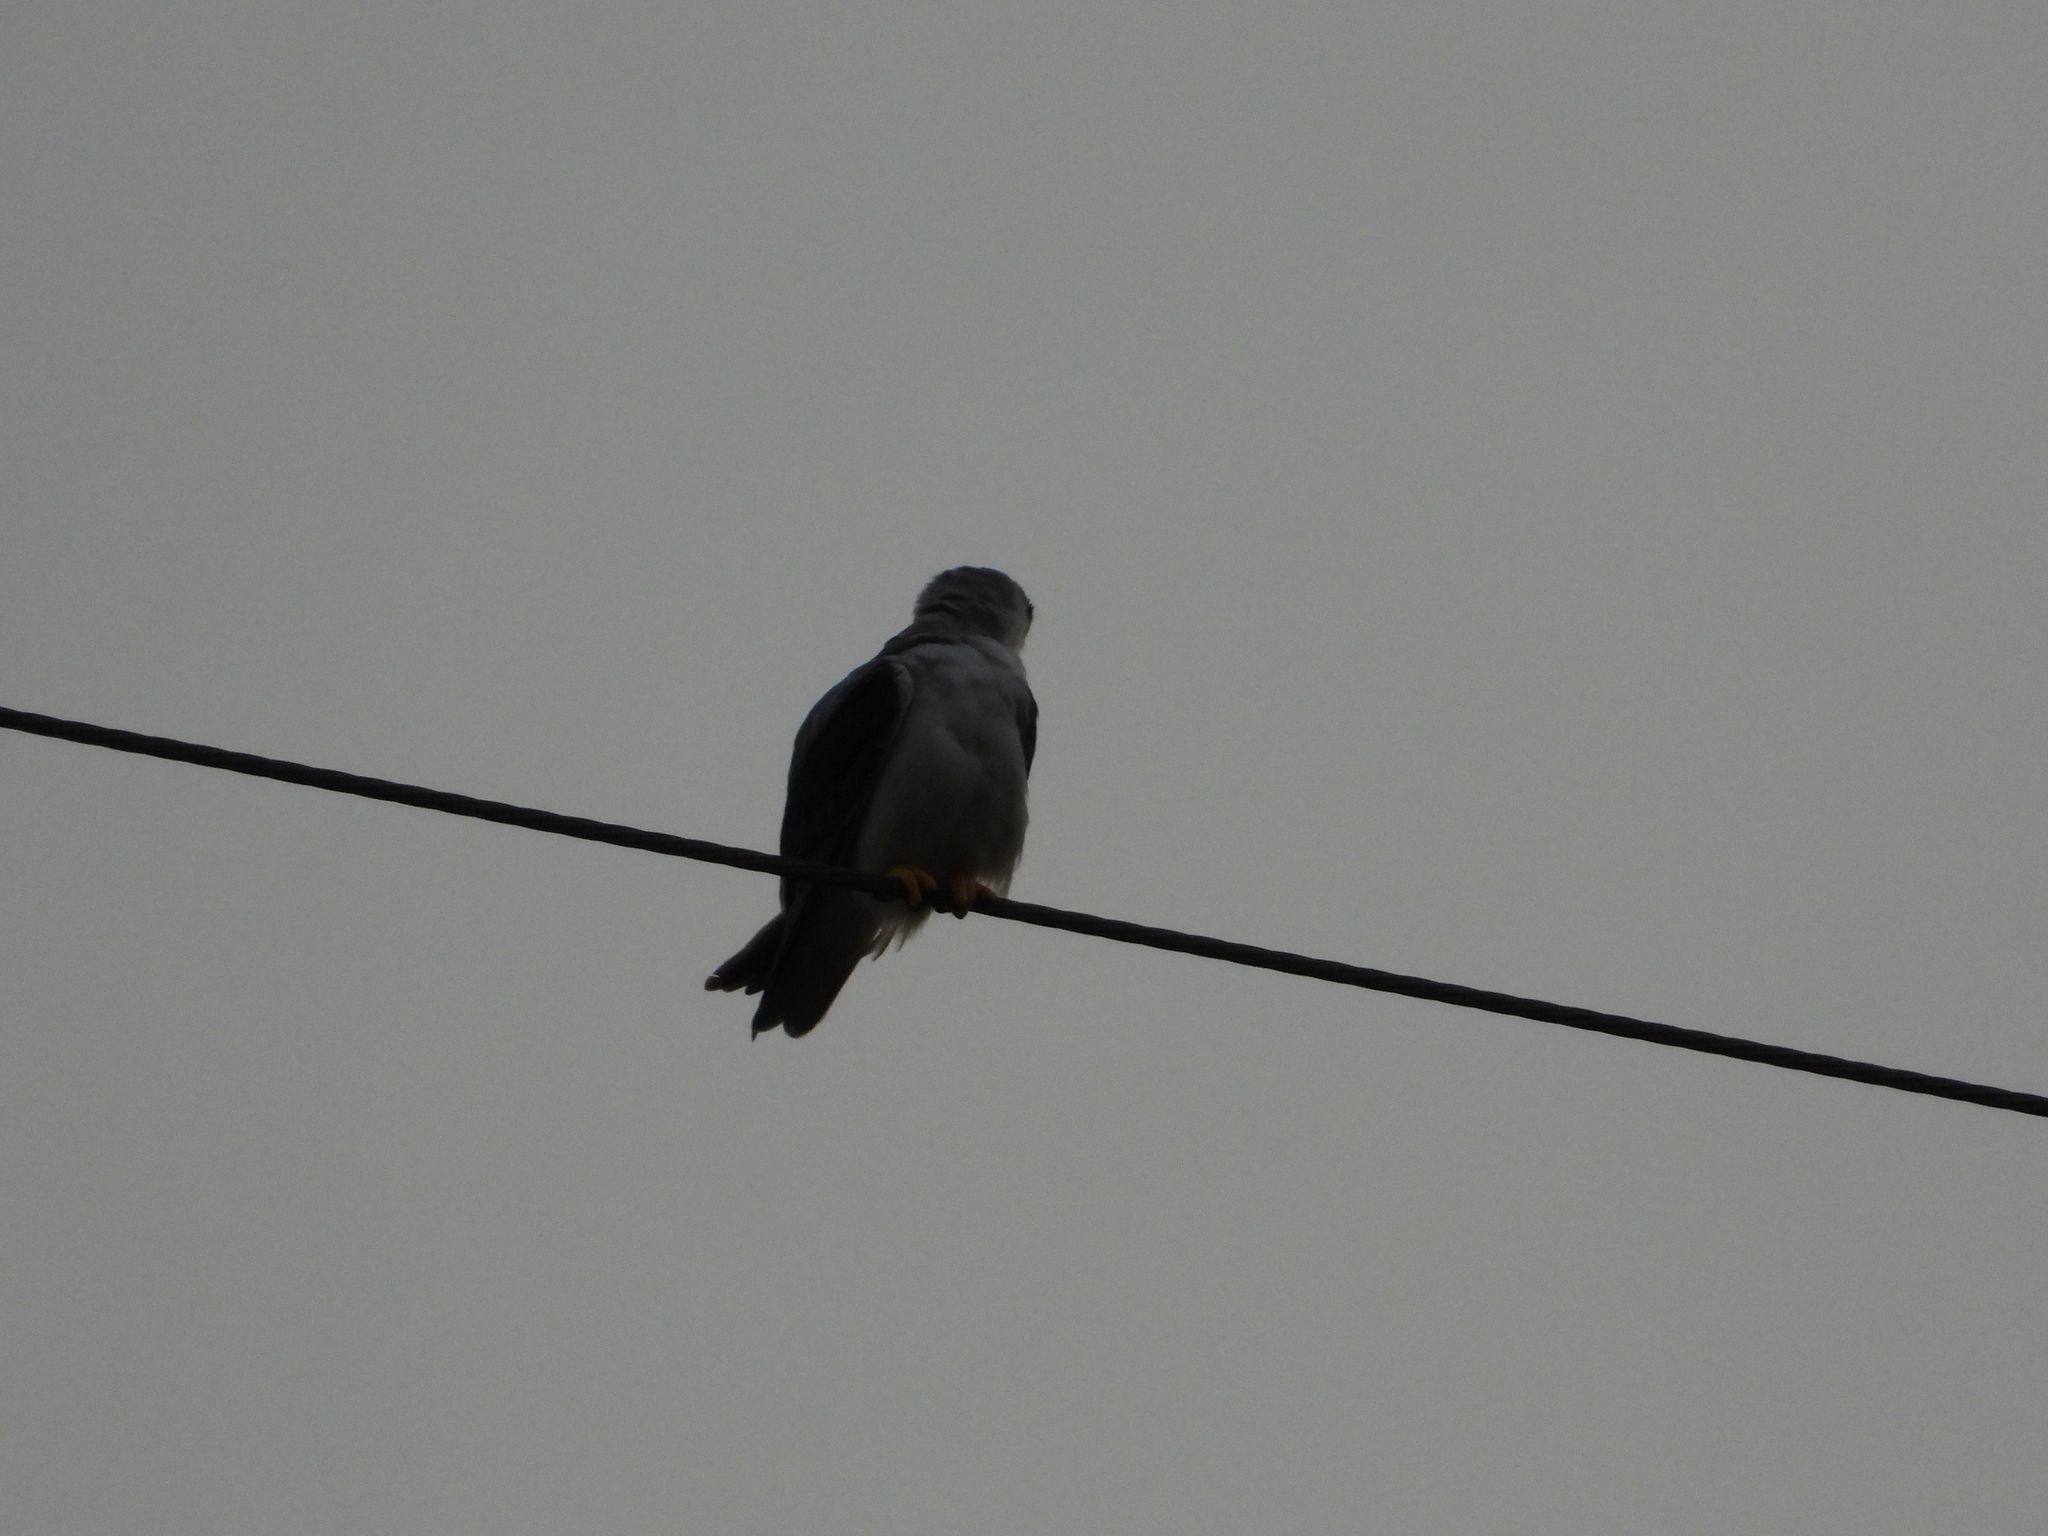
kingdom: Animalia
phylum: Chordata
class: Aves
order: Accipitriformes
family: Accipitridae
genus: Elanus
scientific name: Elanus caeruleus
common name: Black-winged kite
